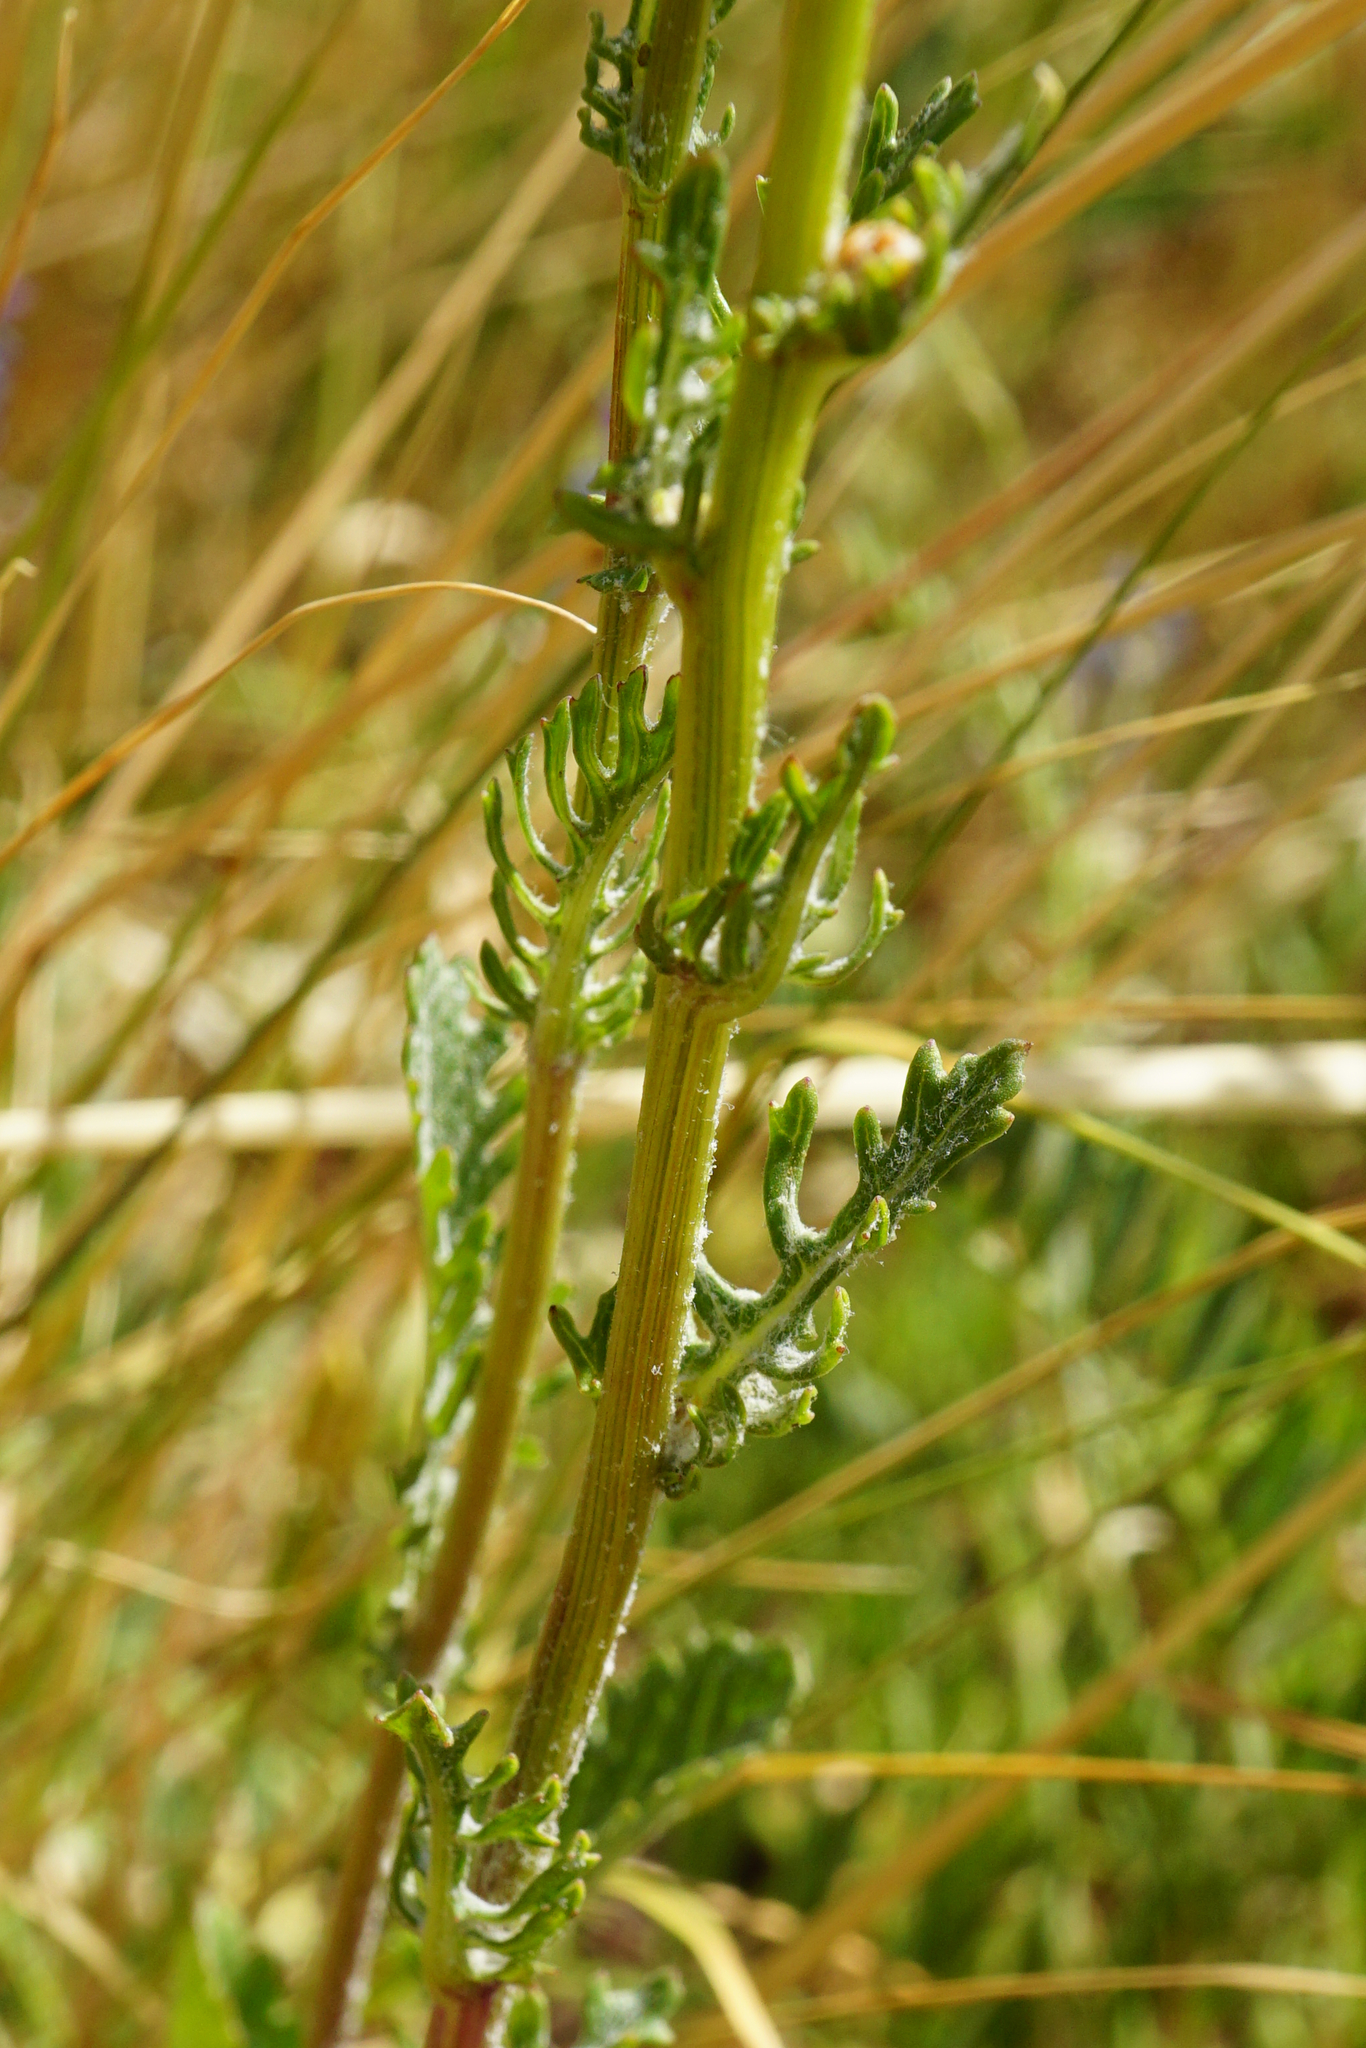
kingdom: Plantae
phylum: Tracheophyta
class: Magnoliopsida
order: Asterales
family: Asteraceae
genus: Jacobaea
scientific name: Jacobaea vulgaris
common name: Stinking willie
